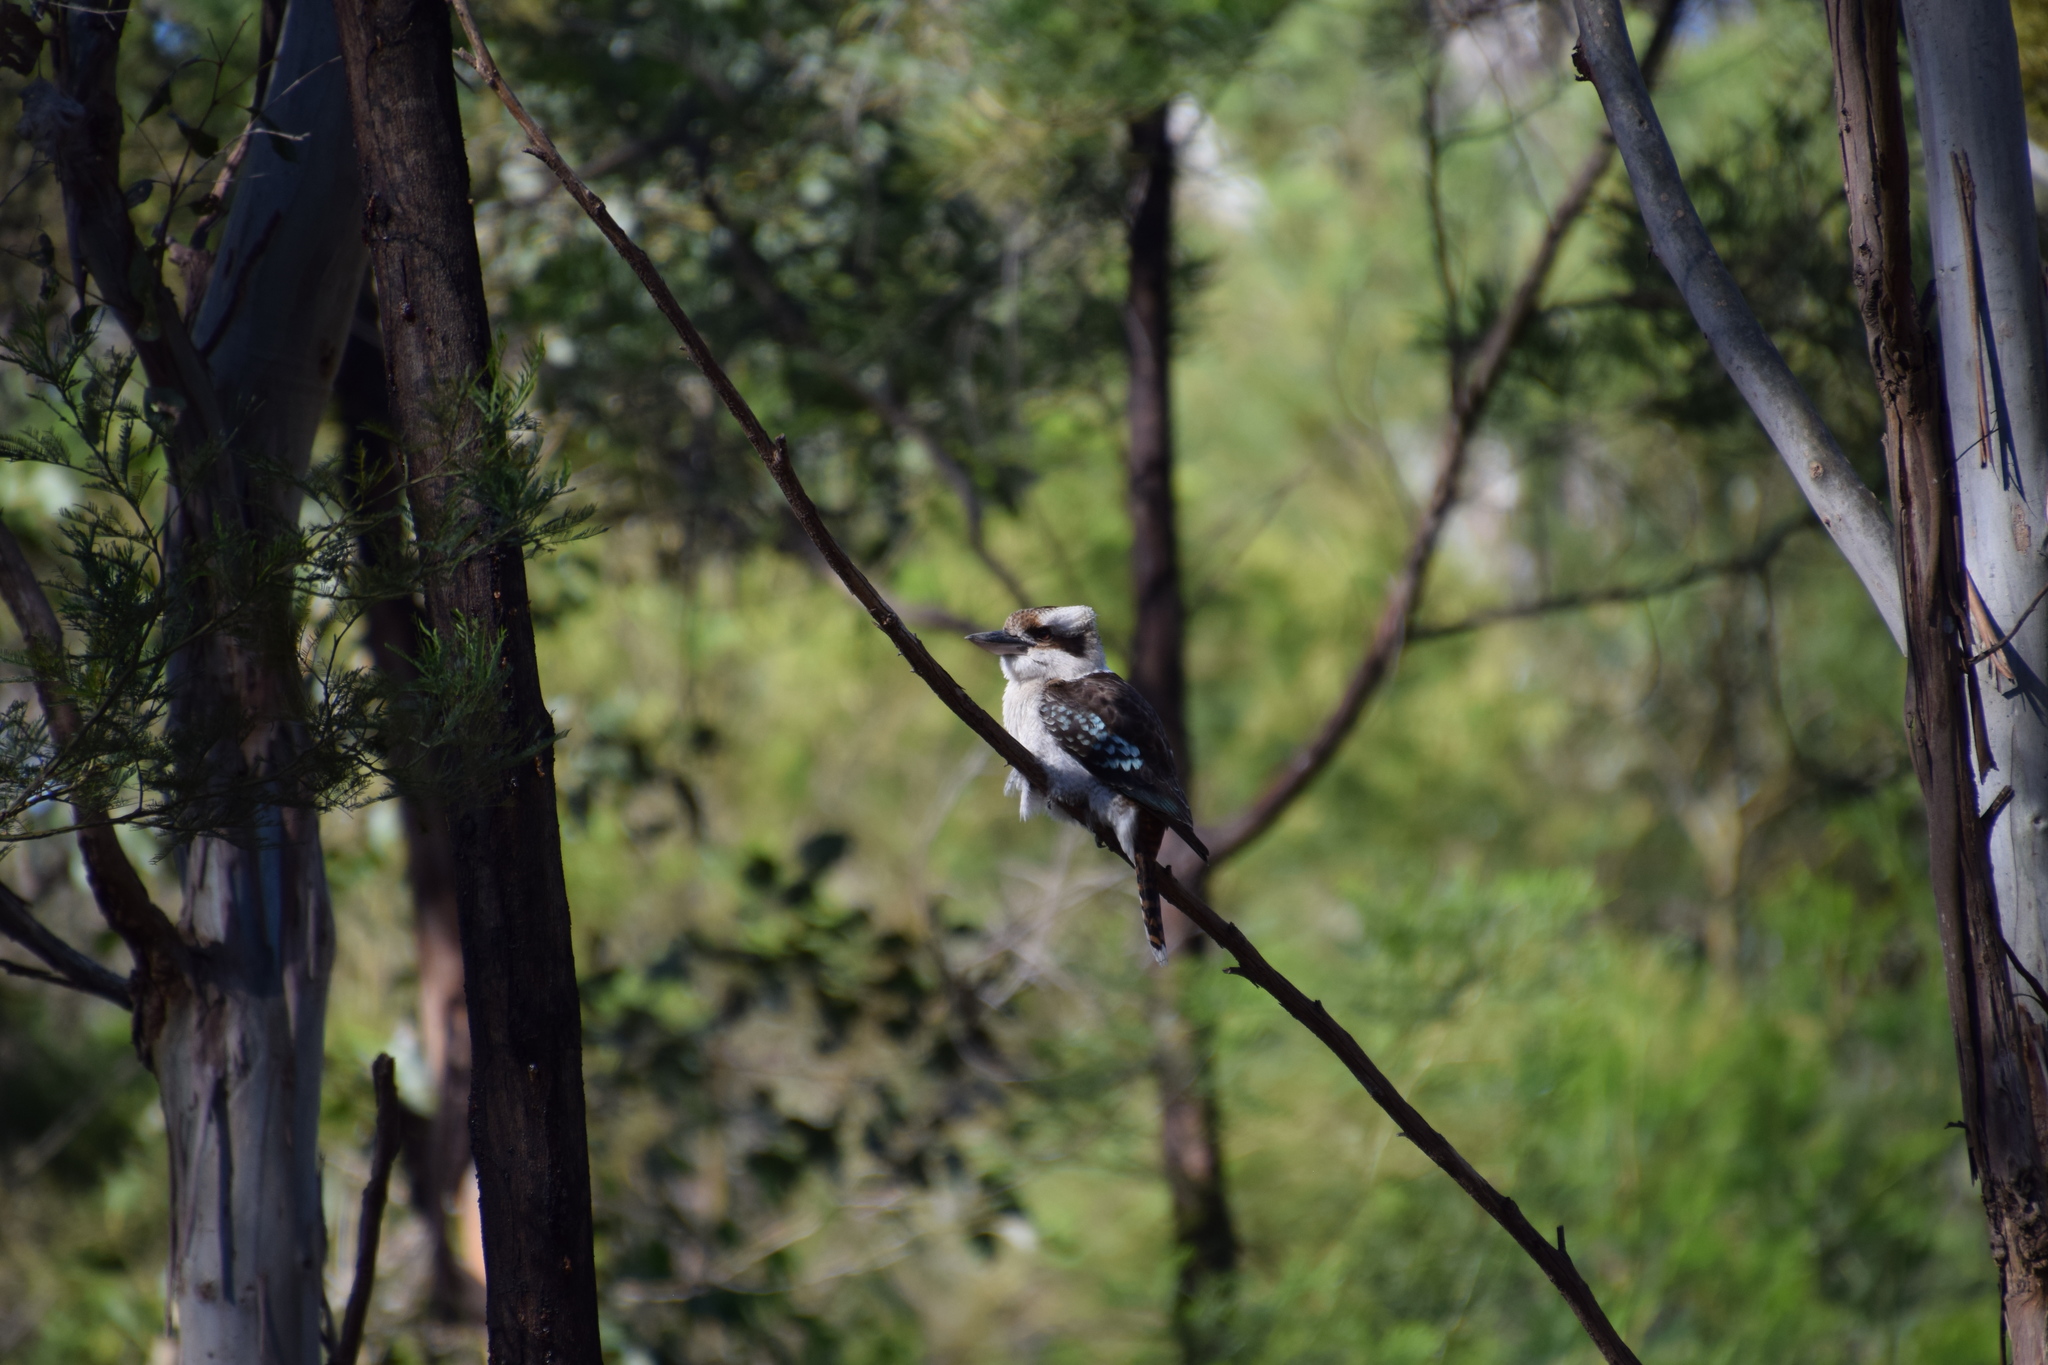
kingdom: Animalia
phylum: Chordata
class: Aves
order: Coraciiformes
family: Alcedinidae
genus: Dacelo
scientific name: Dacelo novaeguineae
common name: Laughing kookaburra
